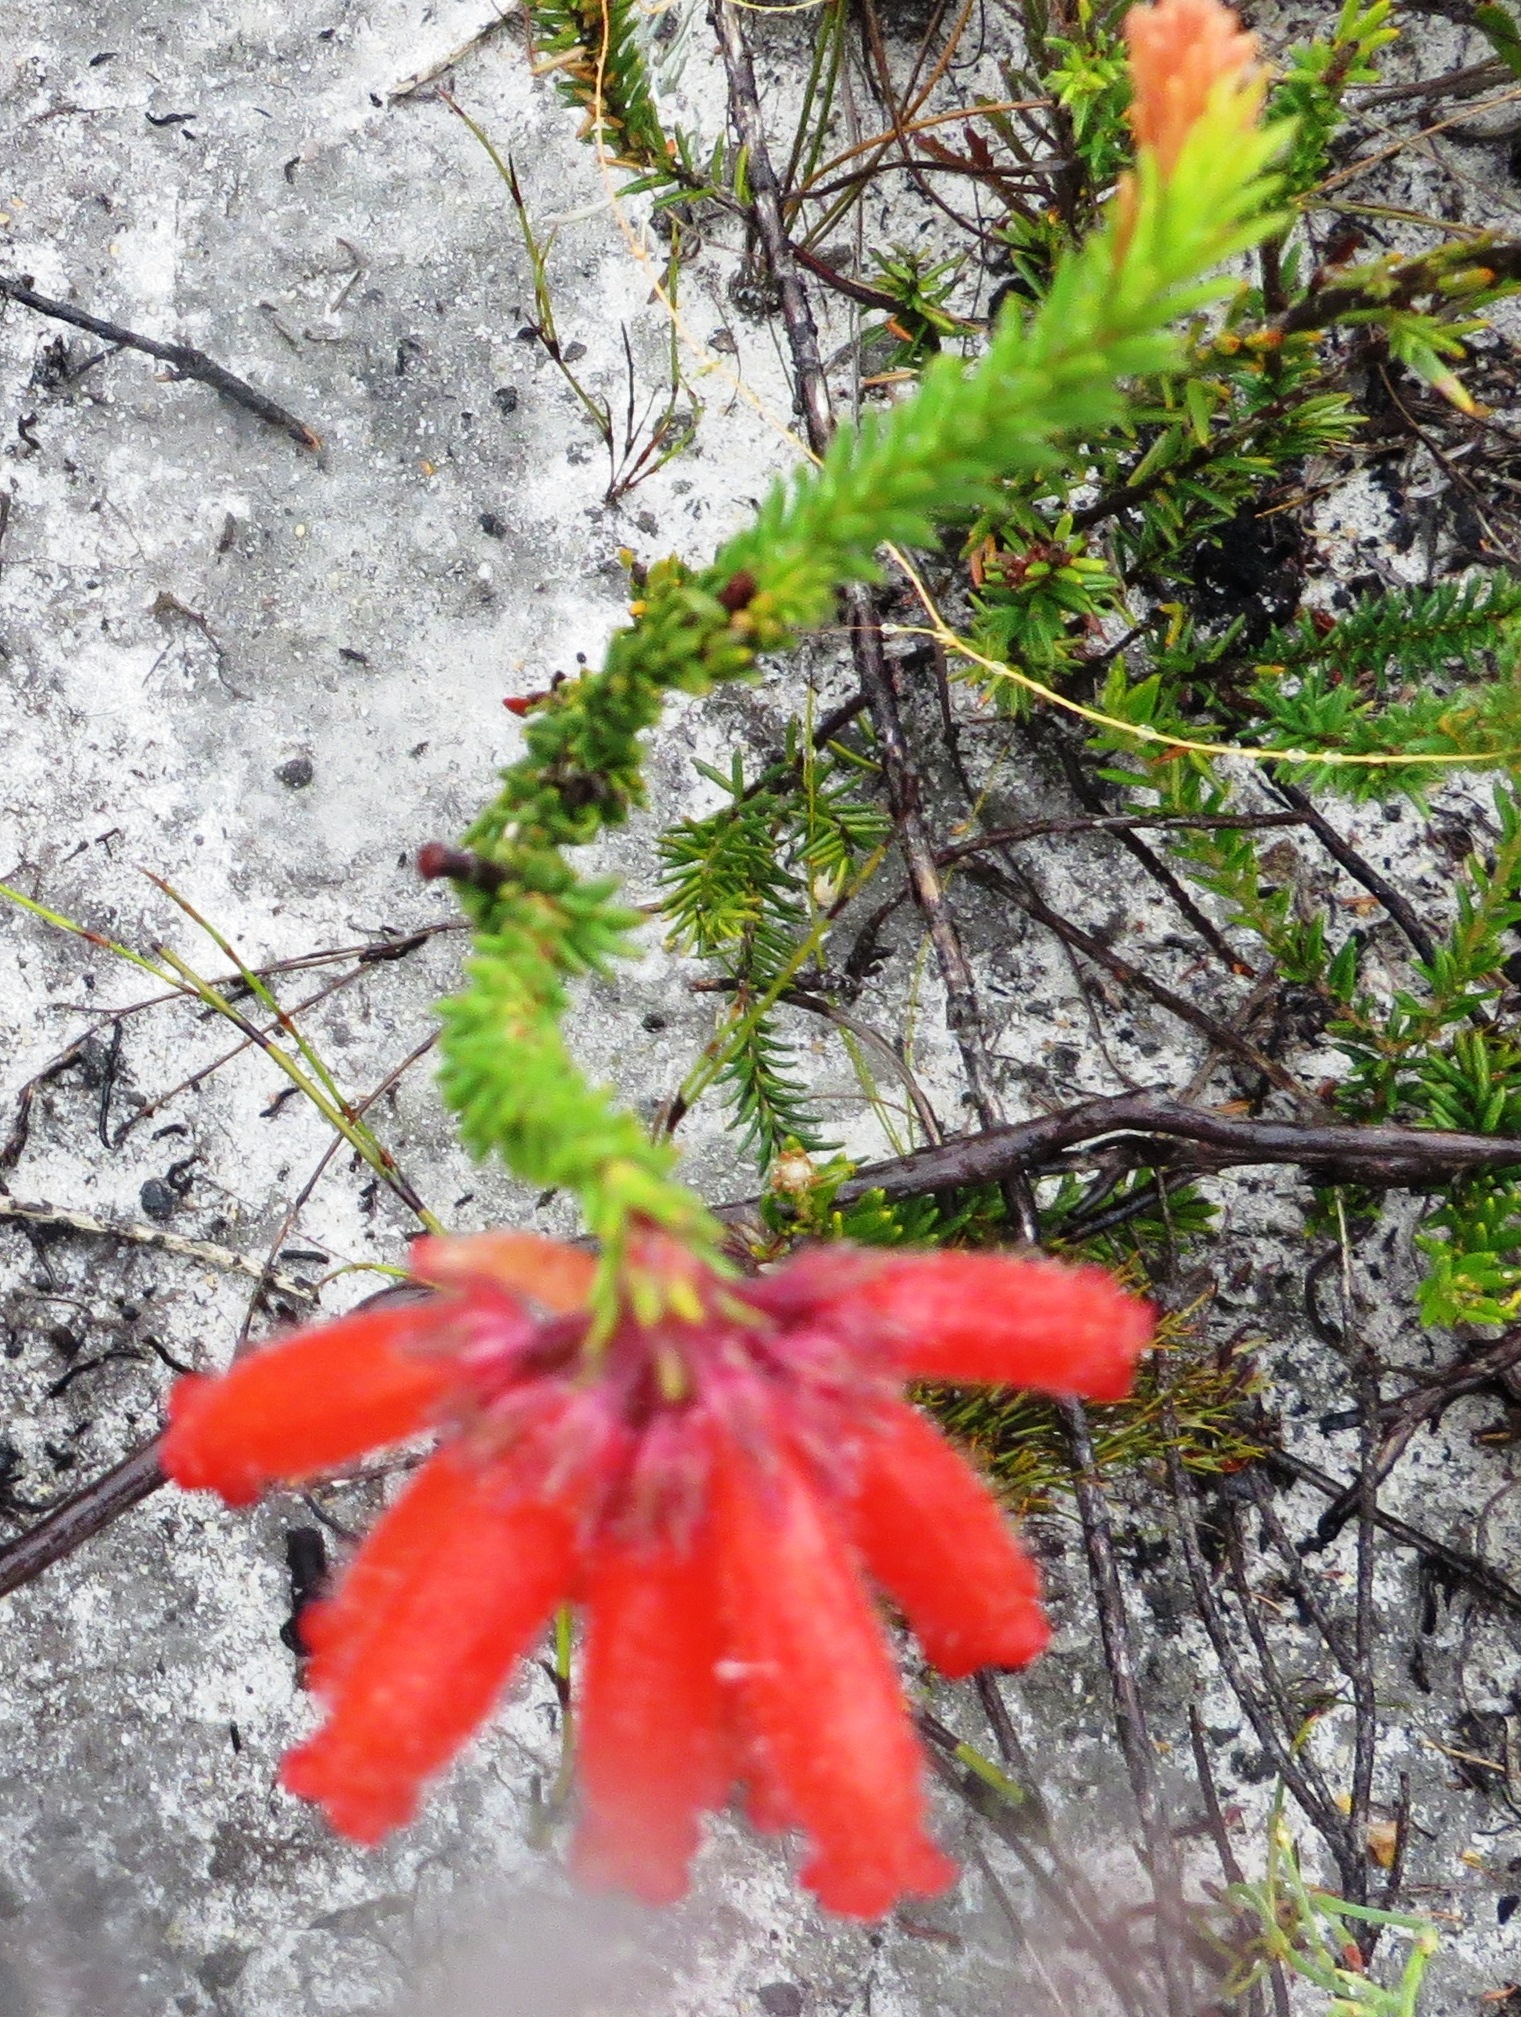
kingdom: Plantae
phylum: Tracheophyta
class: Magnoliopsida
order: Ericales
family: Ericaceae
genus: Erica
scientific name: Erica cerinthoides
